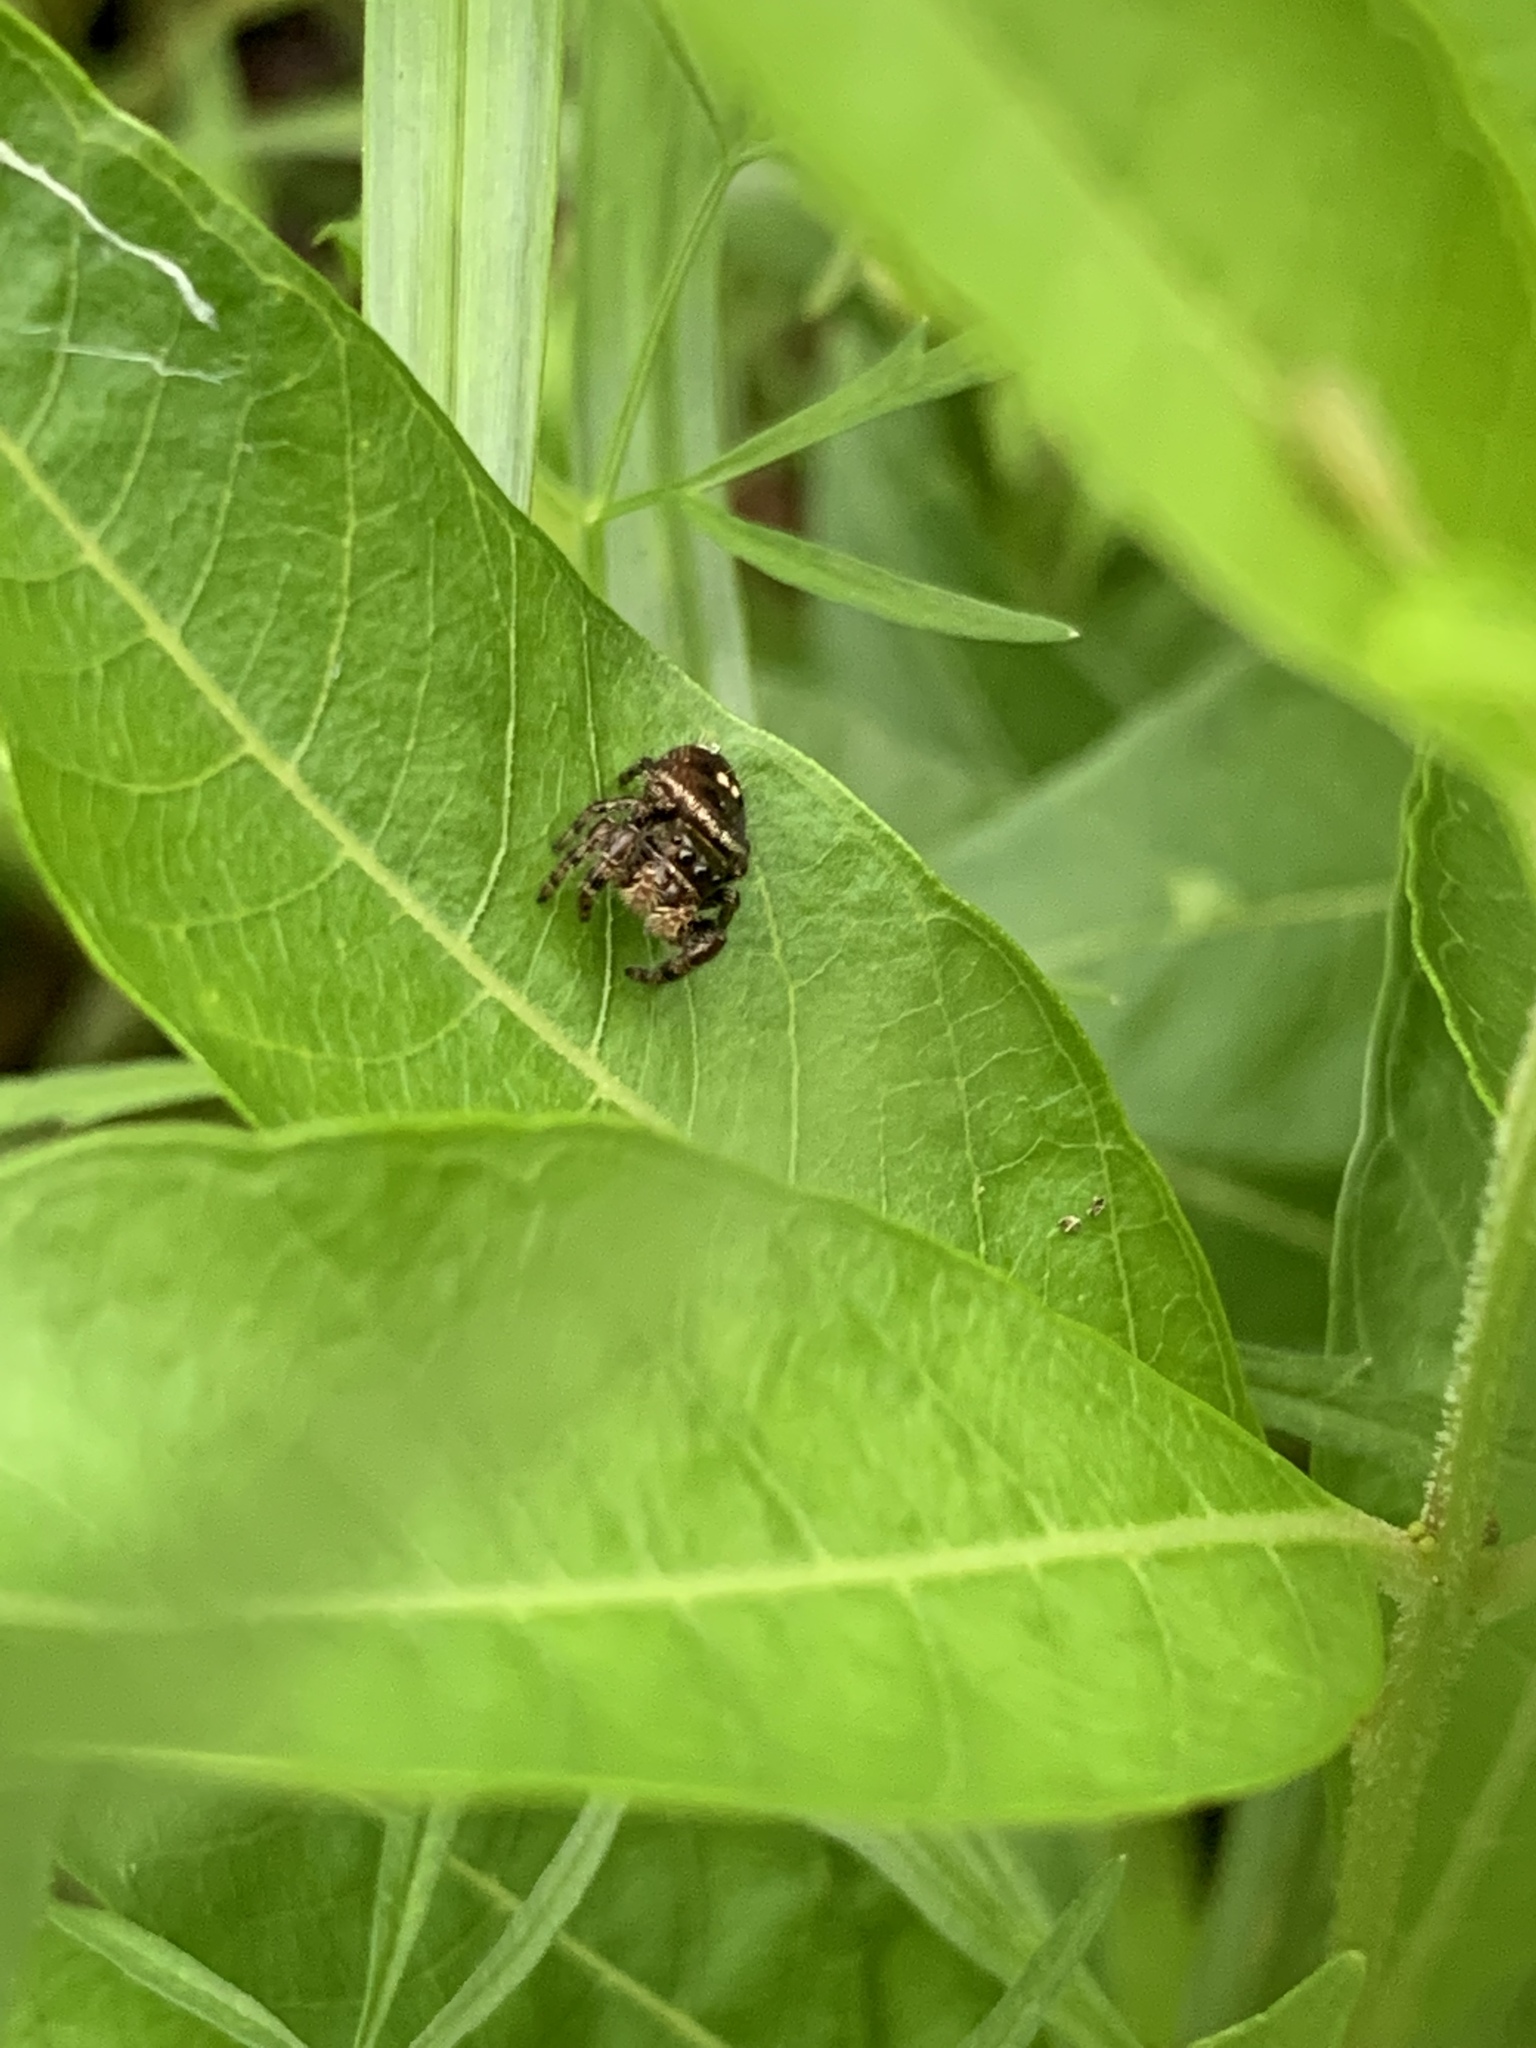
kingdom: Animalia
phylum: Arthropoda
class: Arachnida
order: Araneae
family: Salticidae
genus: Phidippus
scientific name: Phidippus audax
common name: Bold jumper
